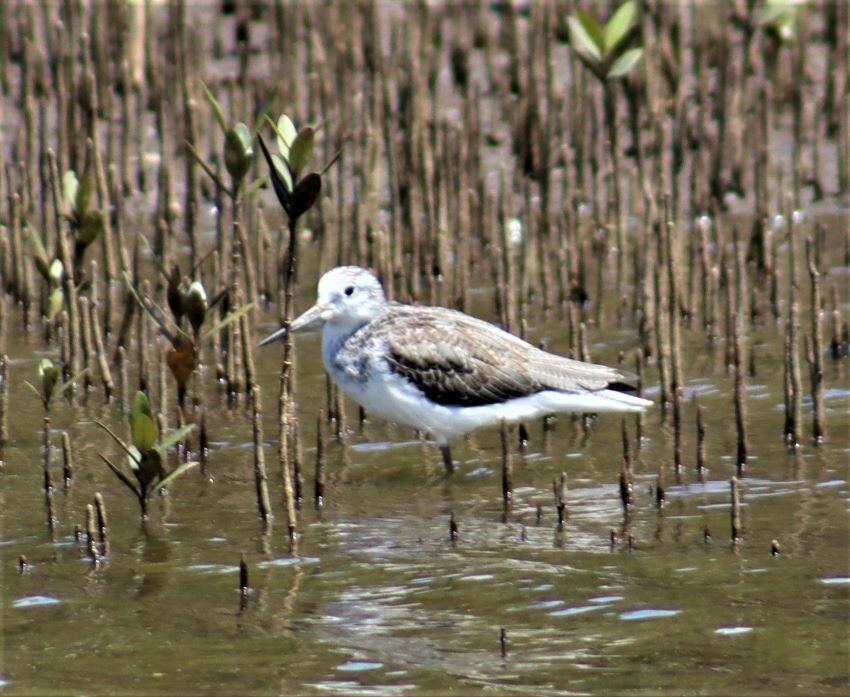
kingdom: Animalia
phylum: Chordata
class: Aves
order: Charadriiformes
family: Scolopacidae
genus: Tringa
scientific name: Tringa nebularia
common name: Common greenshank
